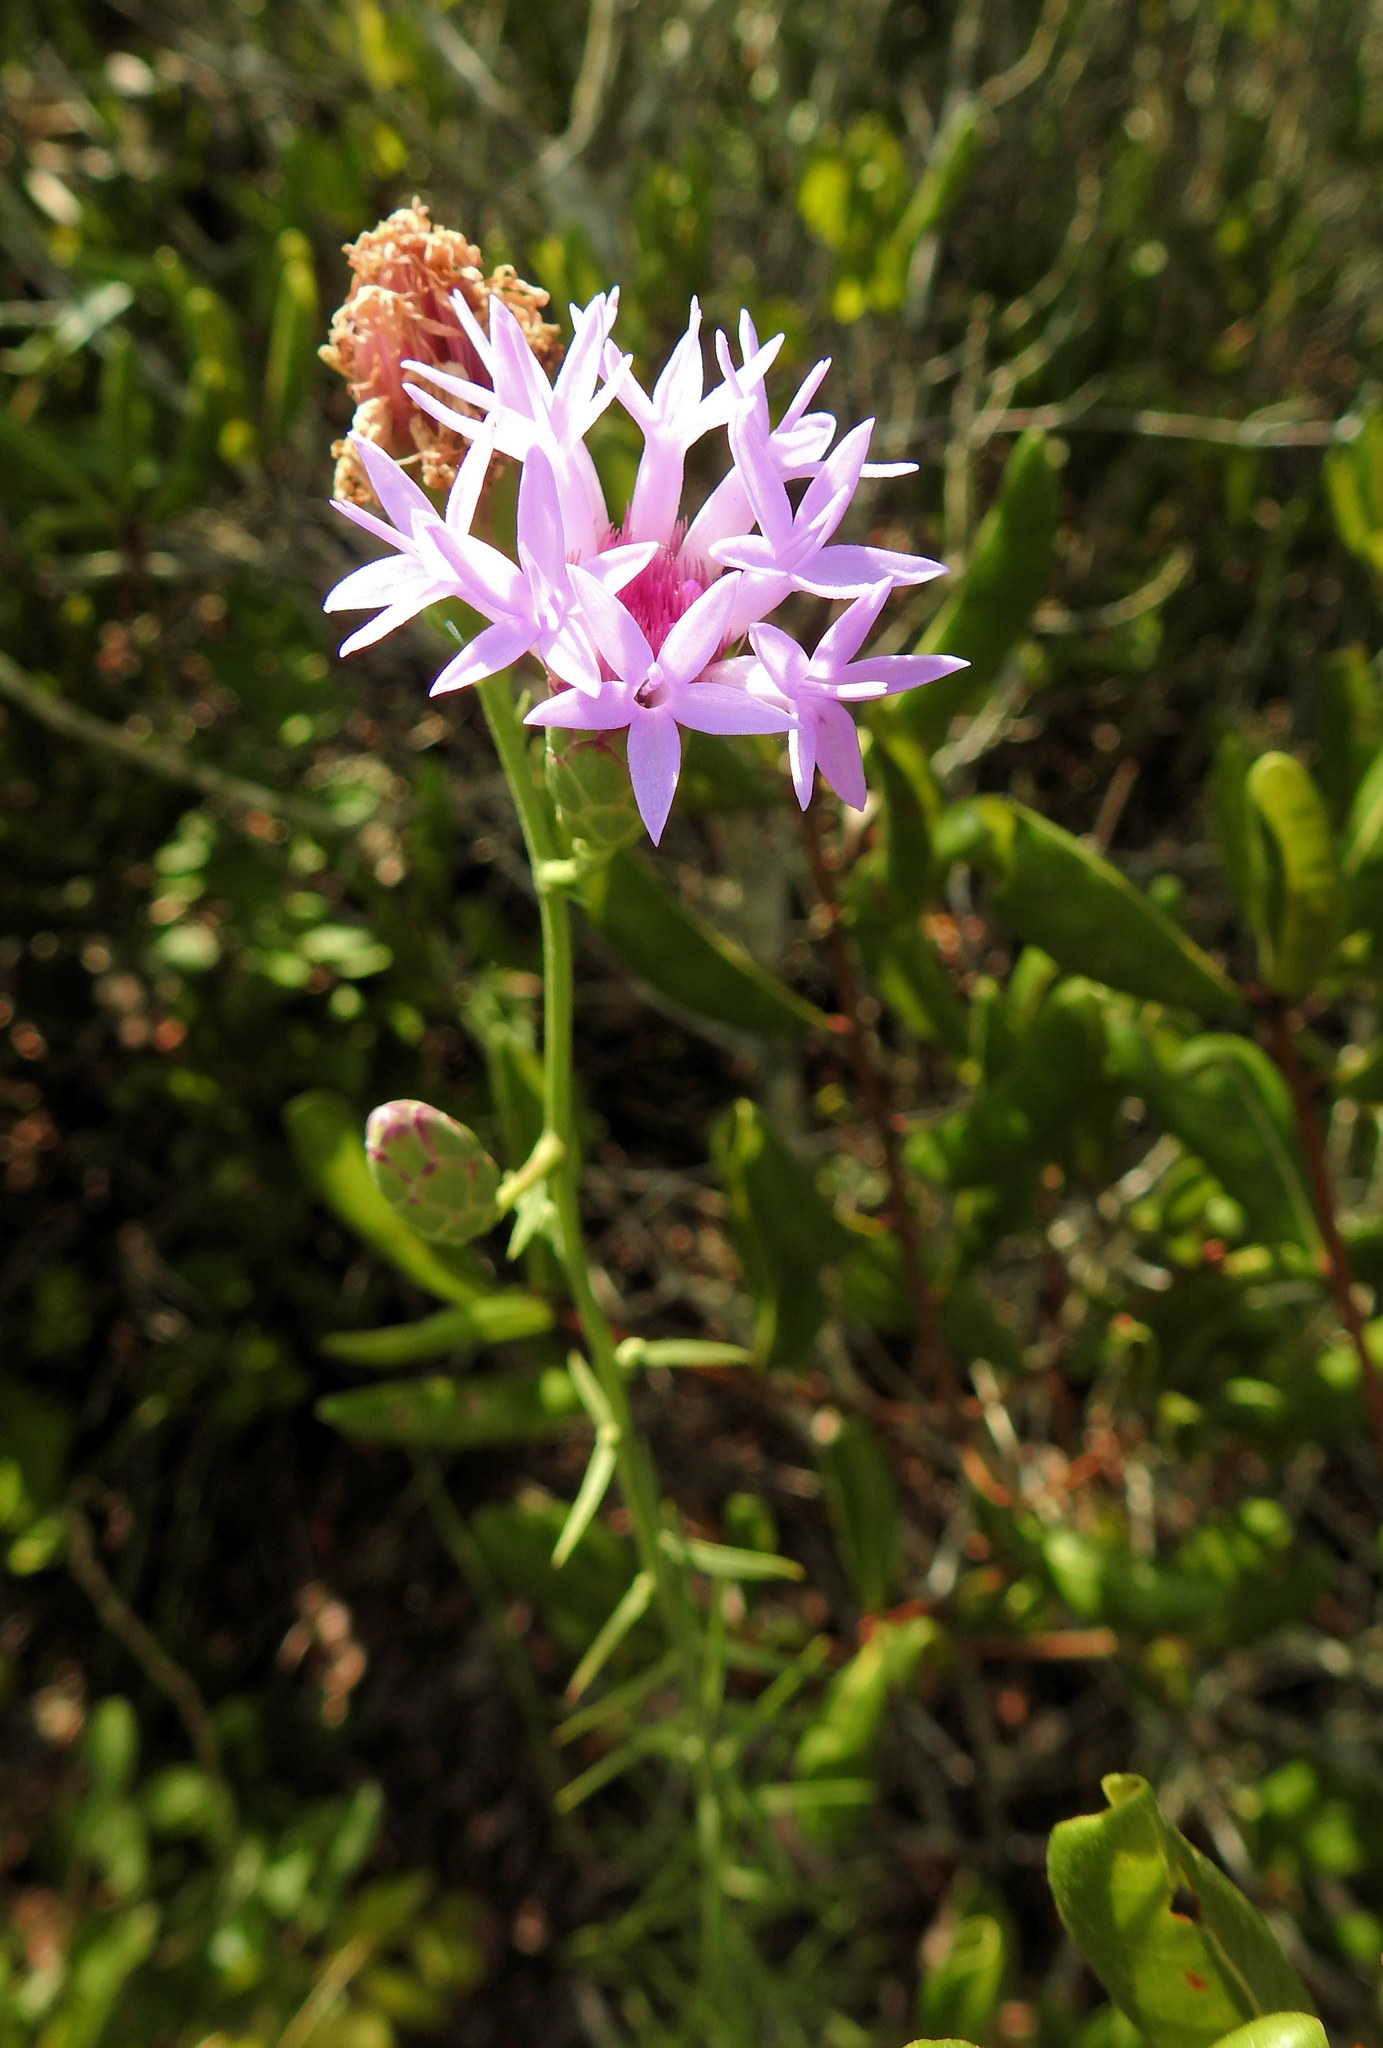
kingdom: Plantae
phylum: Tracheophyta
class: Magnoliopsida
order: Asterales
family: Asteraceae
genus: Liatris
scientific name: Liatris ohlingerae
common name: Scrub blazingstar
